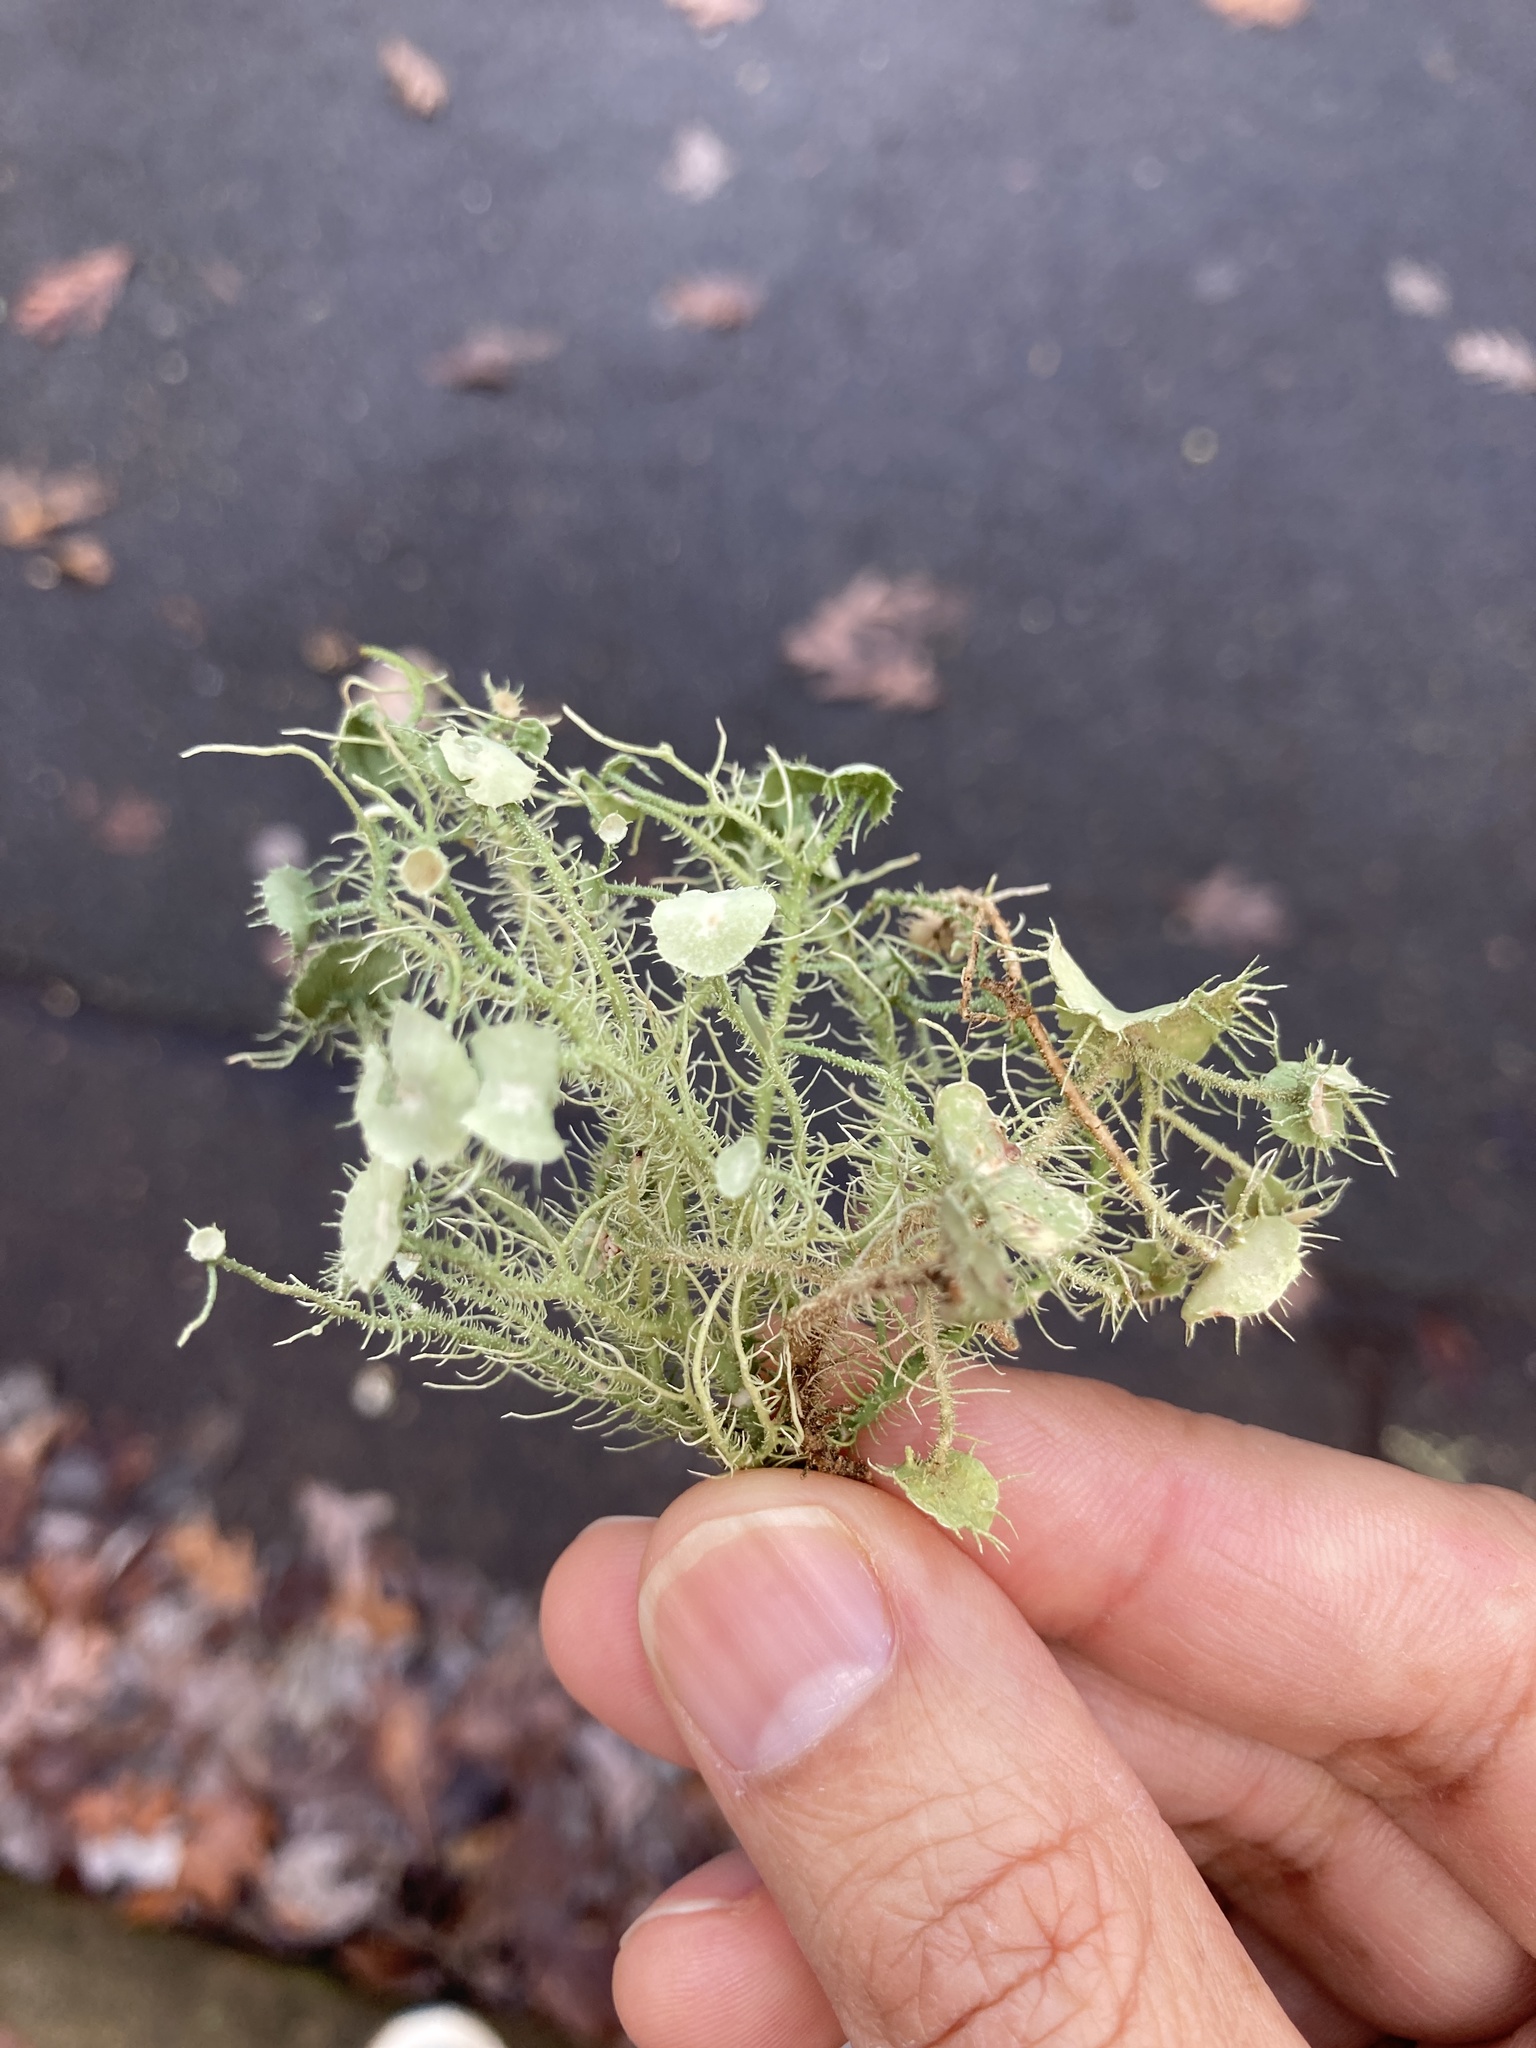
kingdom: Fungi
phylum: Ascomycota
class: Lecanoromycetes
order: Lecanorales
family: Parmeliaceae
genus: Usnea
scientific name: Usnea strigosa
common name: Bushy beard lichen
